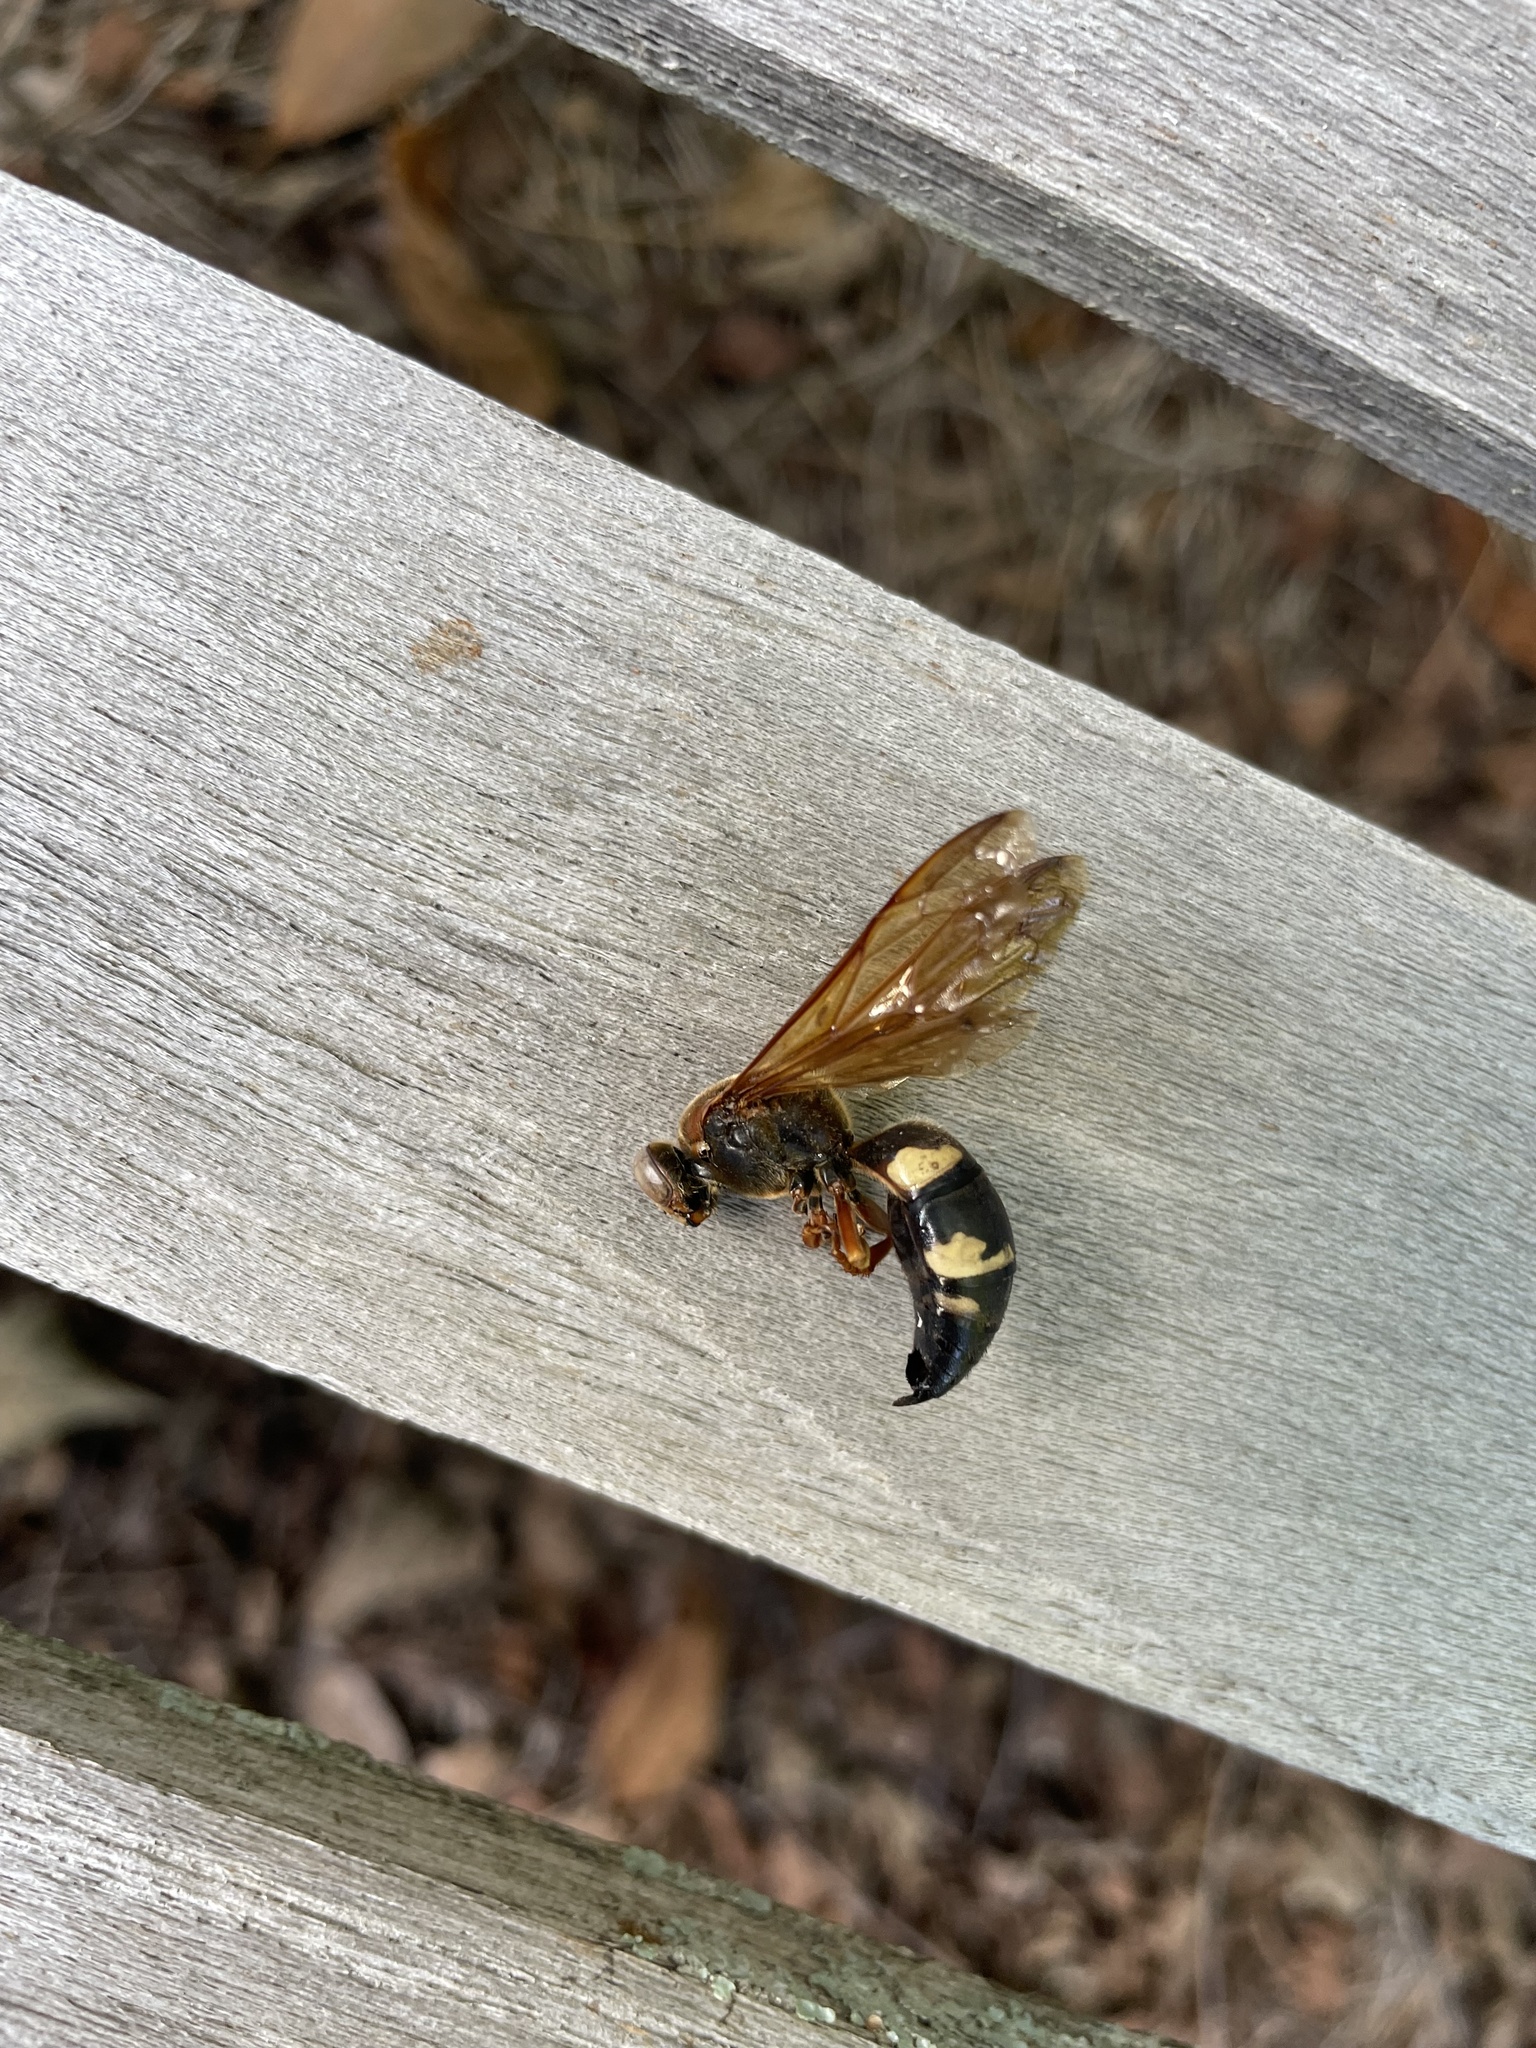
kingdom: Animalia
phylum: Arthropoda
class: Insecta
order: Hymenoptera
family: Crabronidae
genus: Sphecius
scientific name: Sphecius speciosus
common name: Cicada killer
